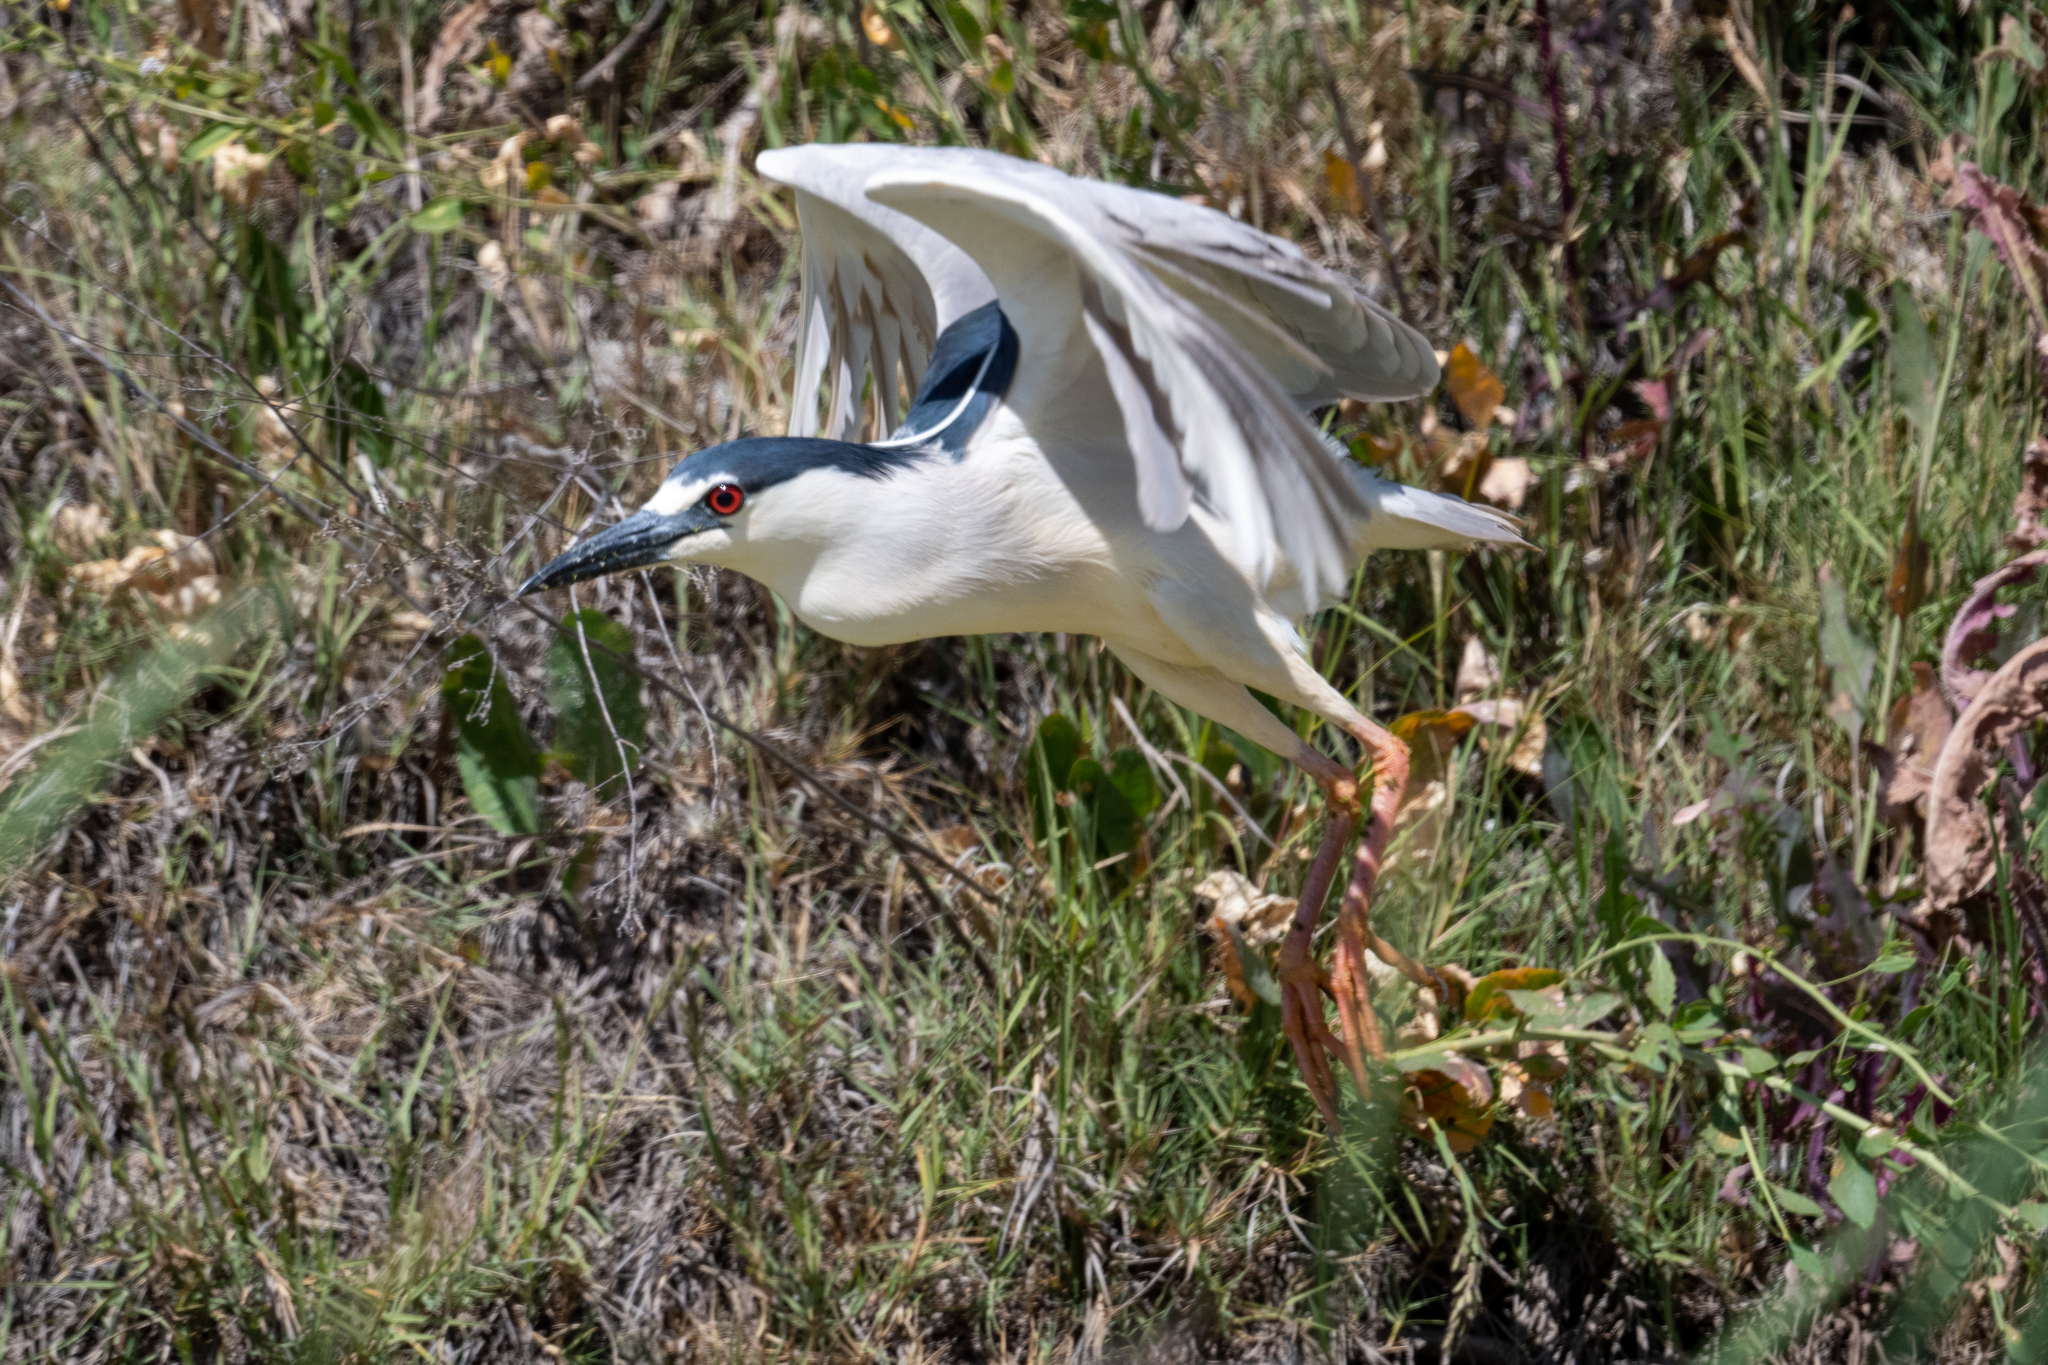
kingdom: Animalia
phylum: Chordata
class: Aves
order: Pelecaniformes
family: Ardeidae
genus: Nycticorax
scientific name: Nycticorax nycticorax
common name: Black-crowned night heron
